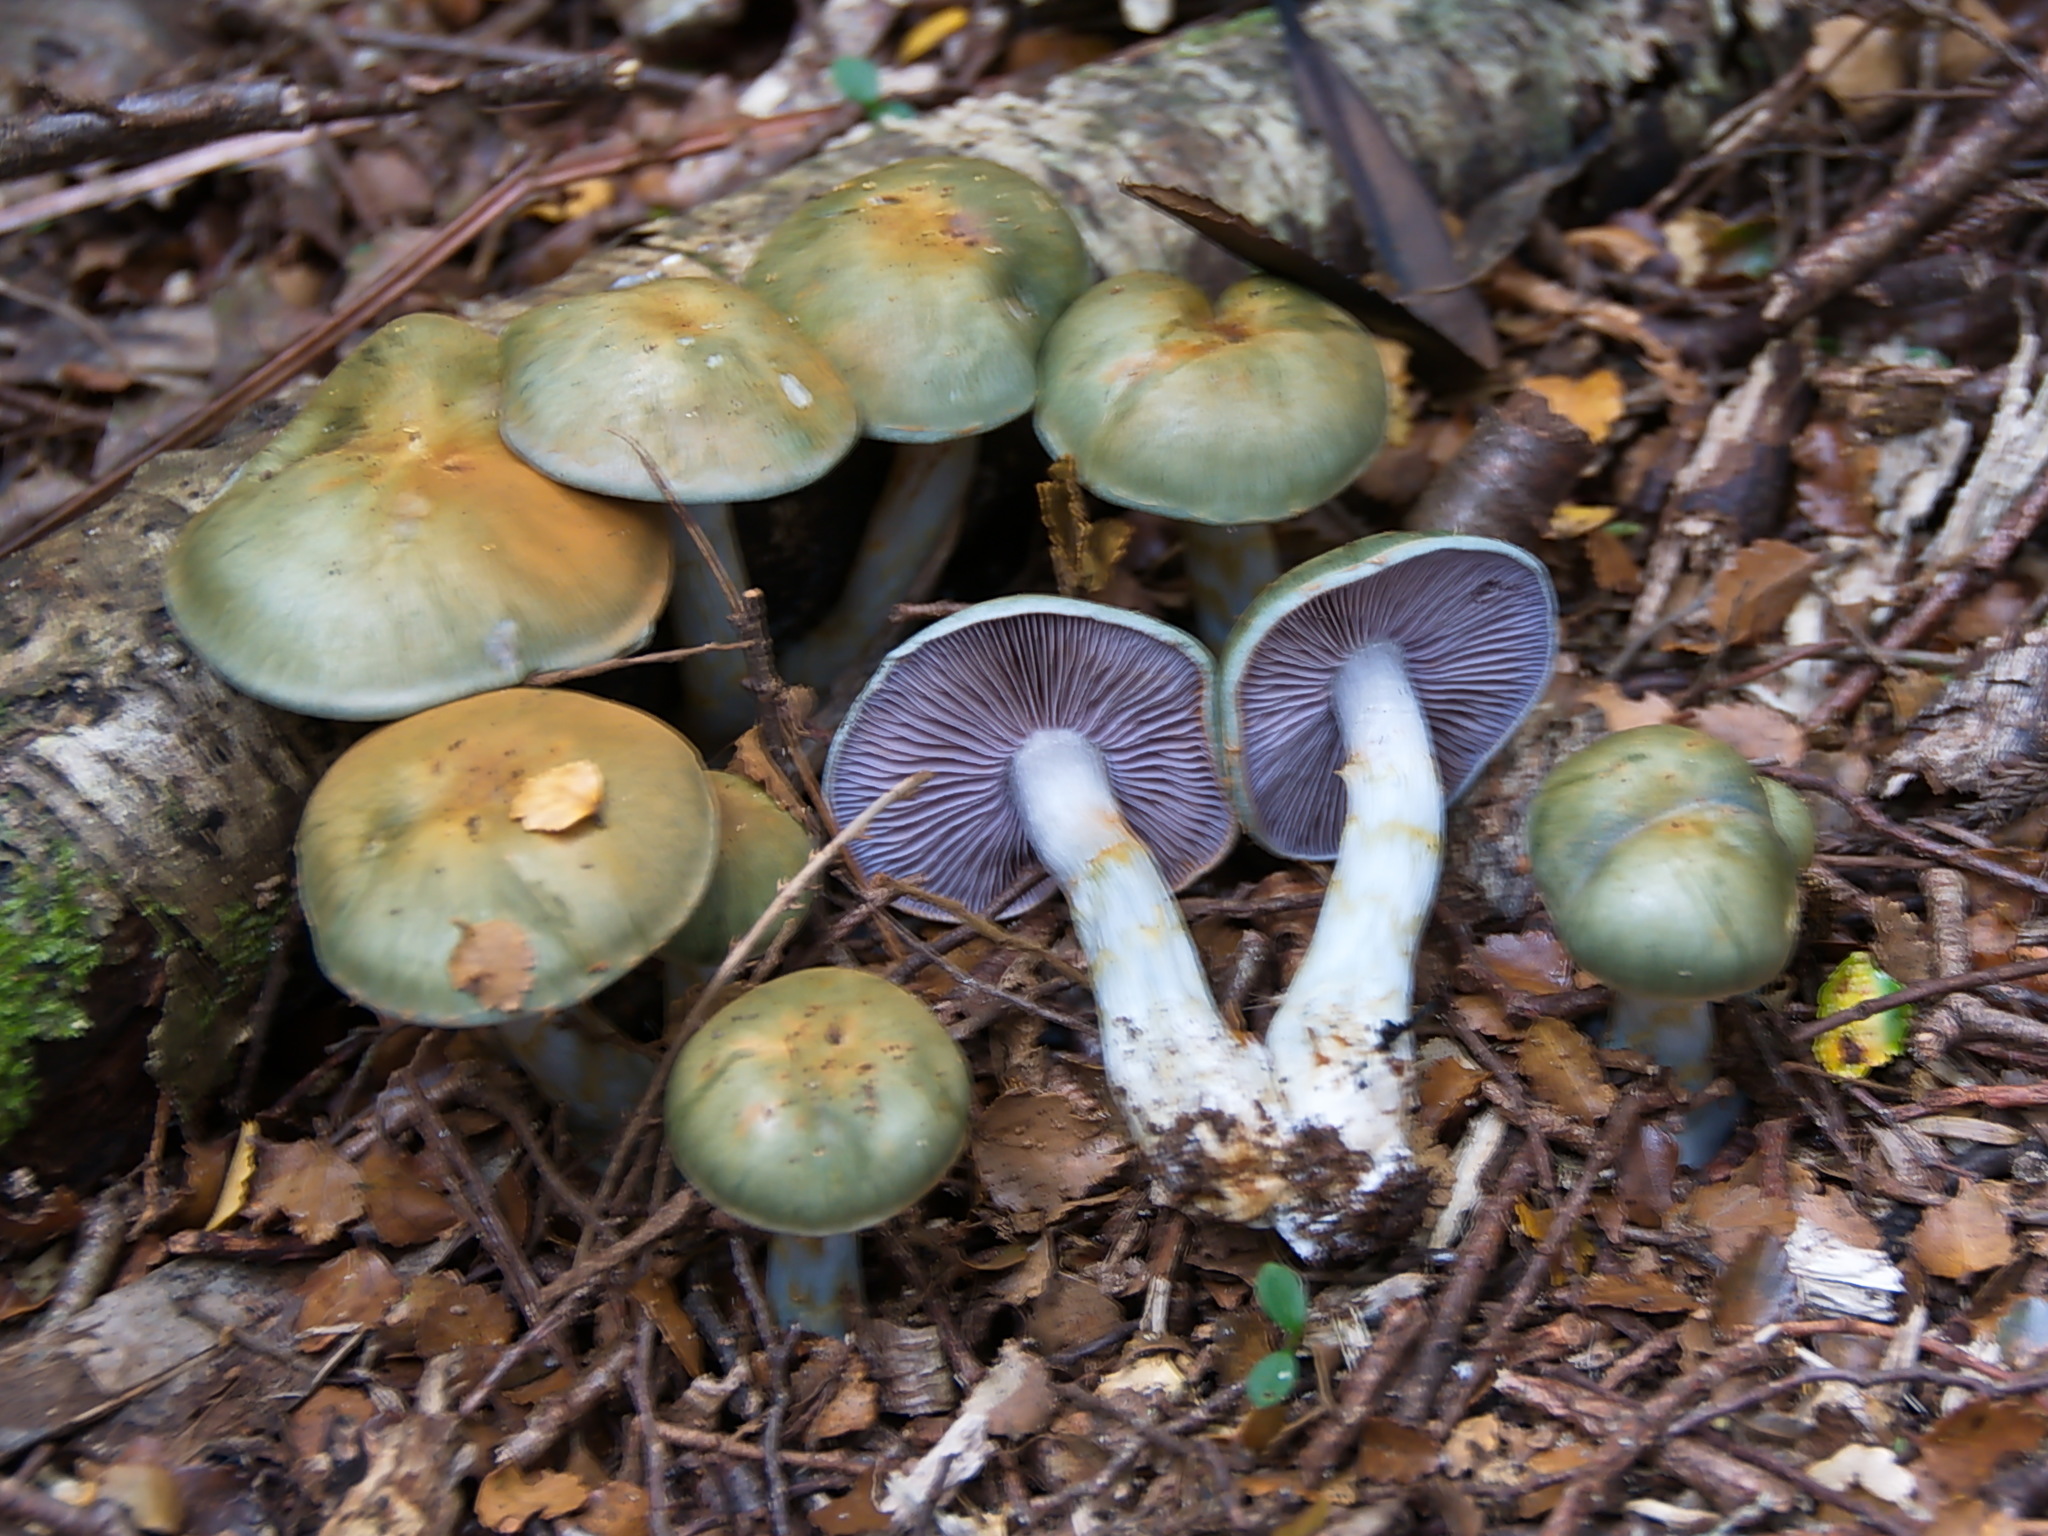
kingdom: Fungi
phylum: Basidiomycota
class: Agaricomycetes
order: Agaricales
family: Cortinariaceae
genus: Cortinarius
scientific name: Cortinarius viridipileatus
